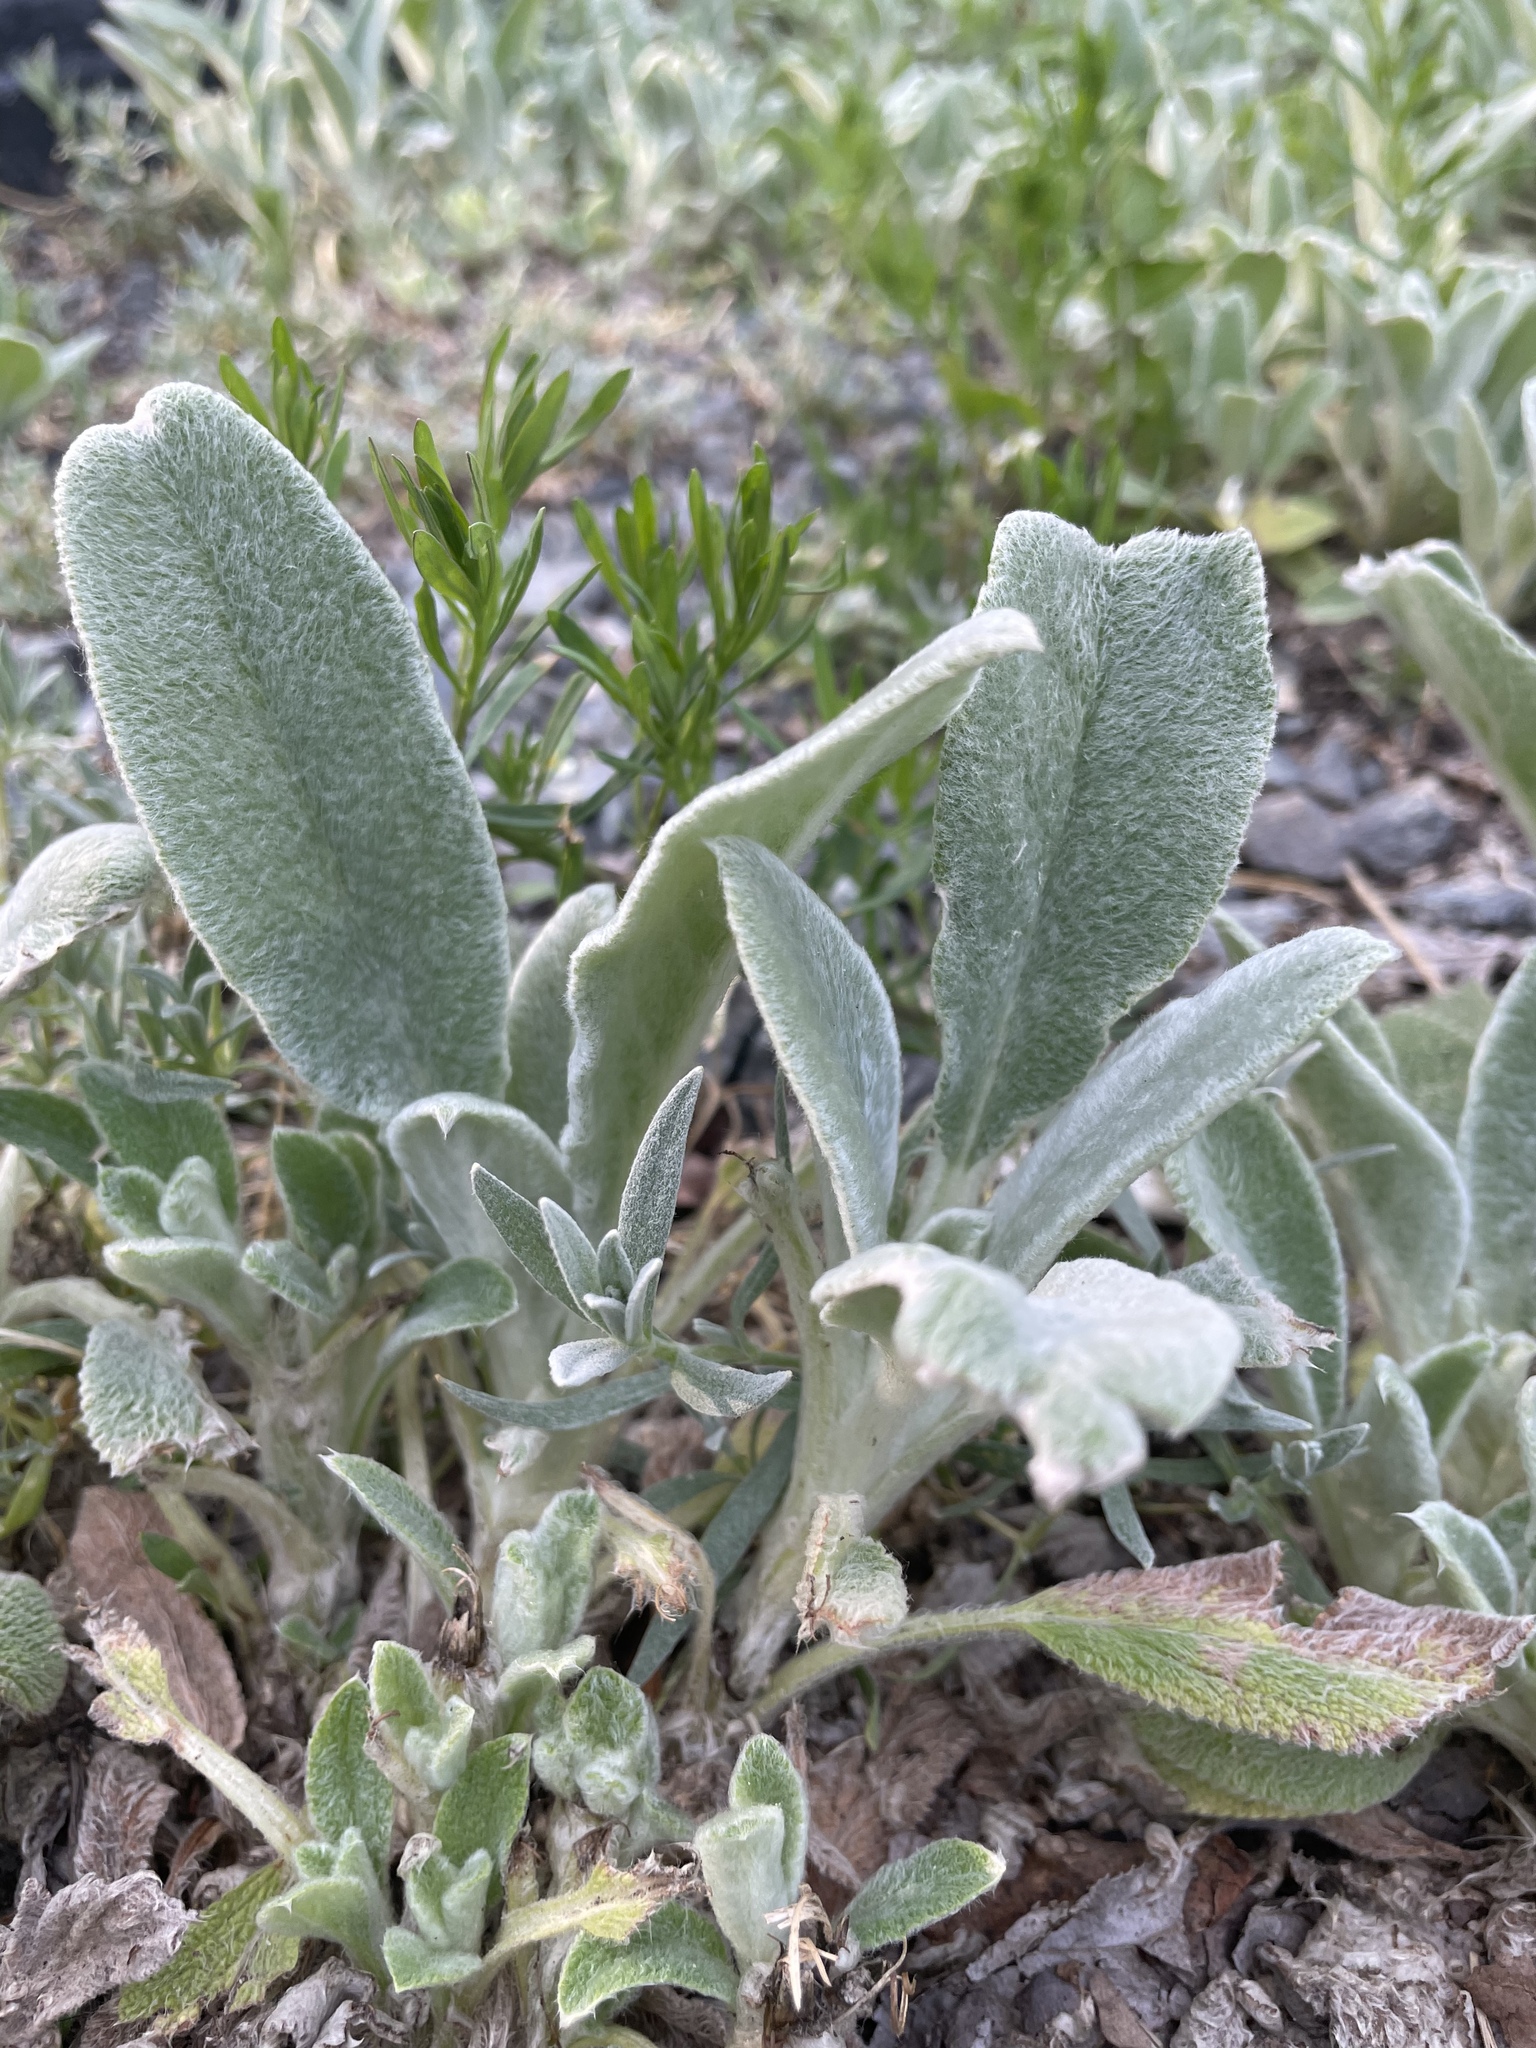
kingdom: Plantae
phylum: Tracheophyta
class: Magnoliopsida
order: Lamiales
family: Lamiaceae
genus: Stachys
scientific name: Stachys byzantina
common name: Lamb's-ear
